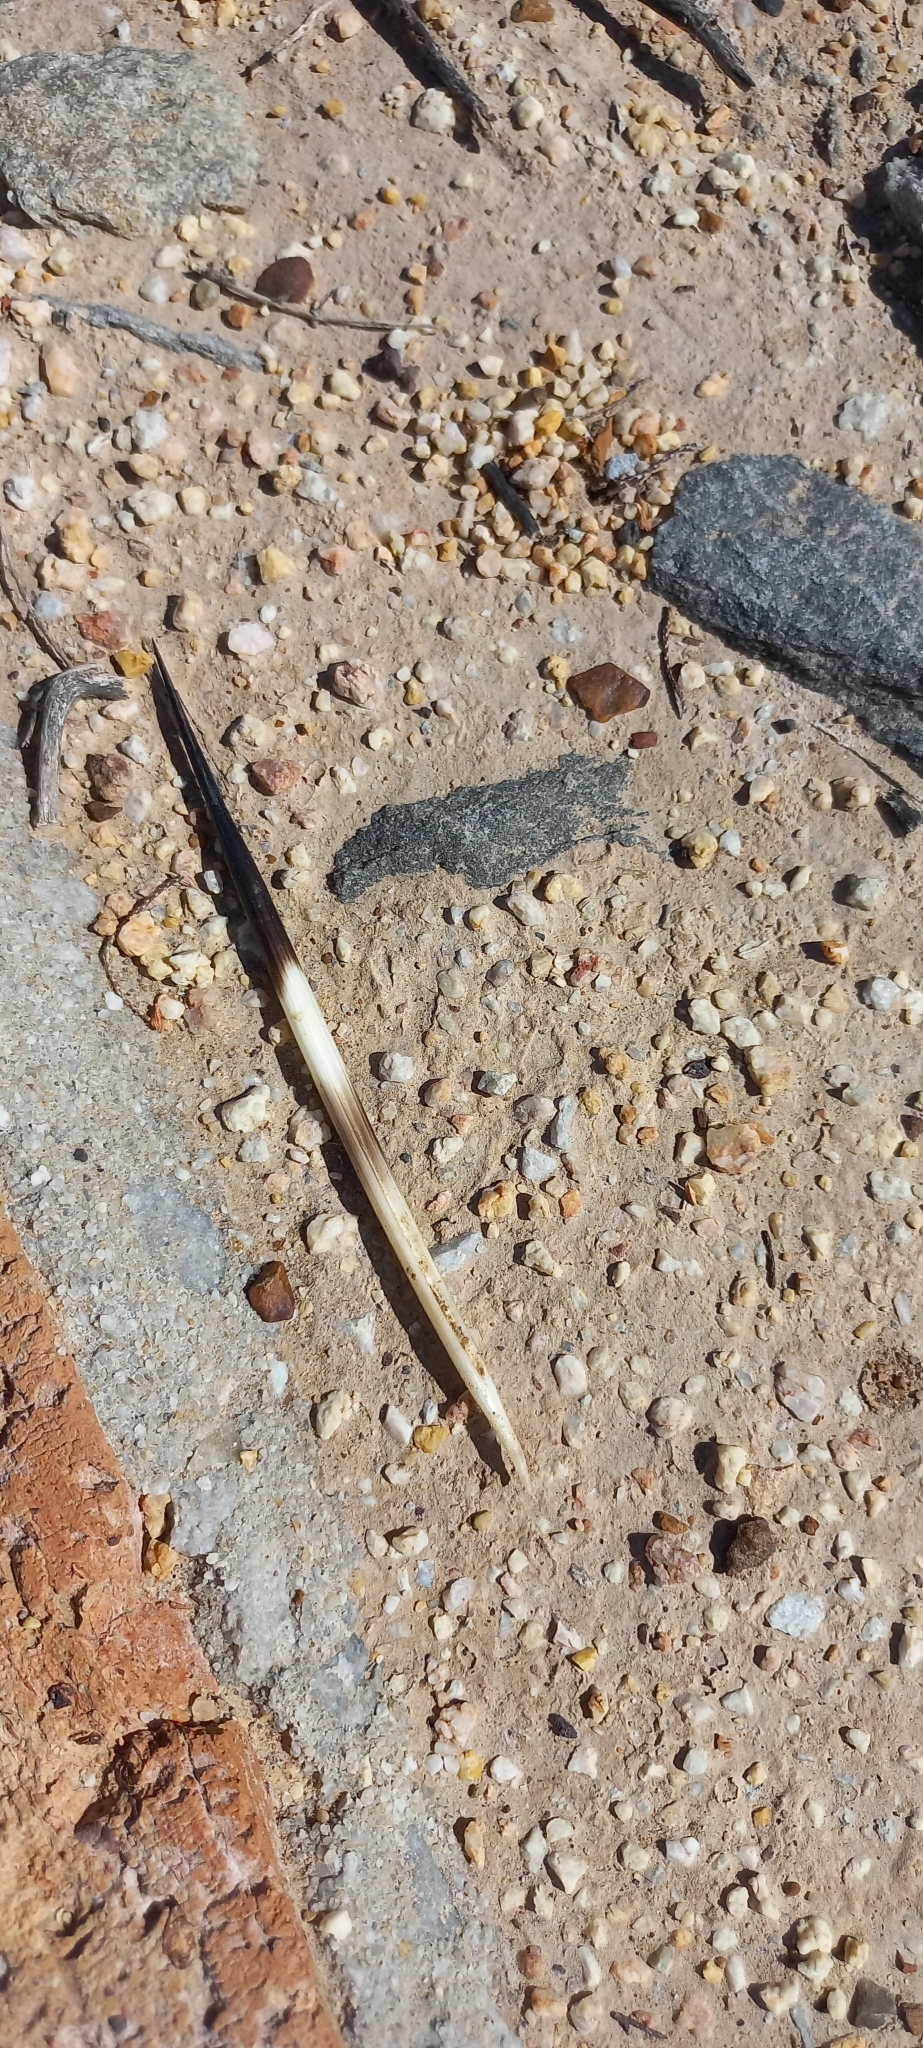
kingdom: Animalia
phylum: Chordata
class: Mammalia
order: Rodentia
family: Hystricidae
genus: Hystrix
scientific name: Hystrix africaeaustralis
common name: Cape porcupine
